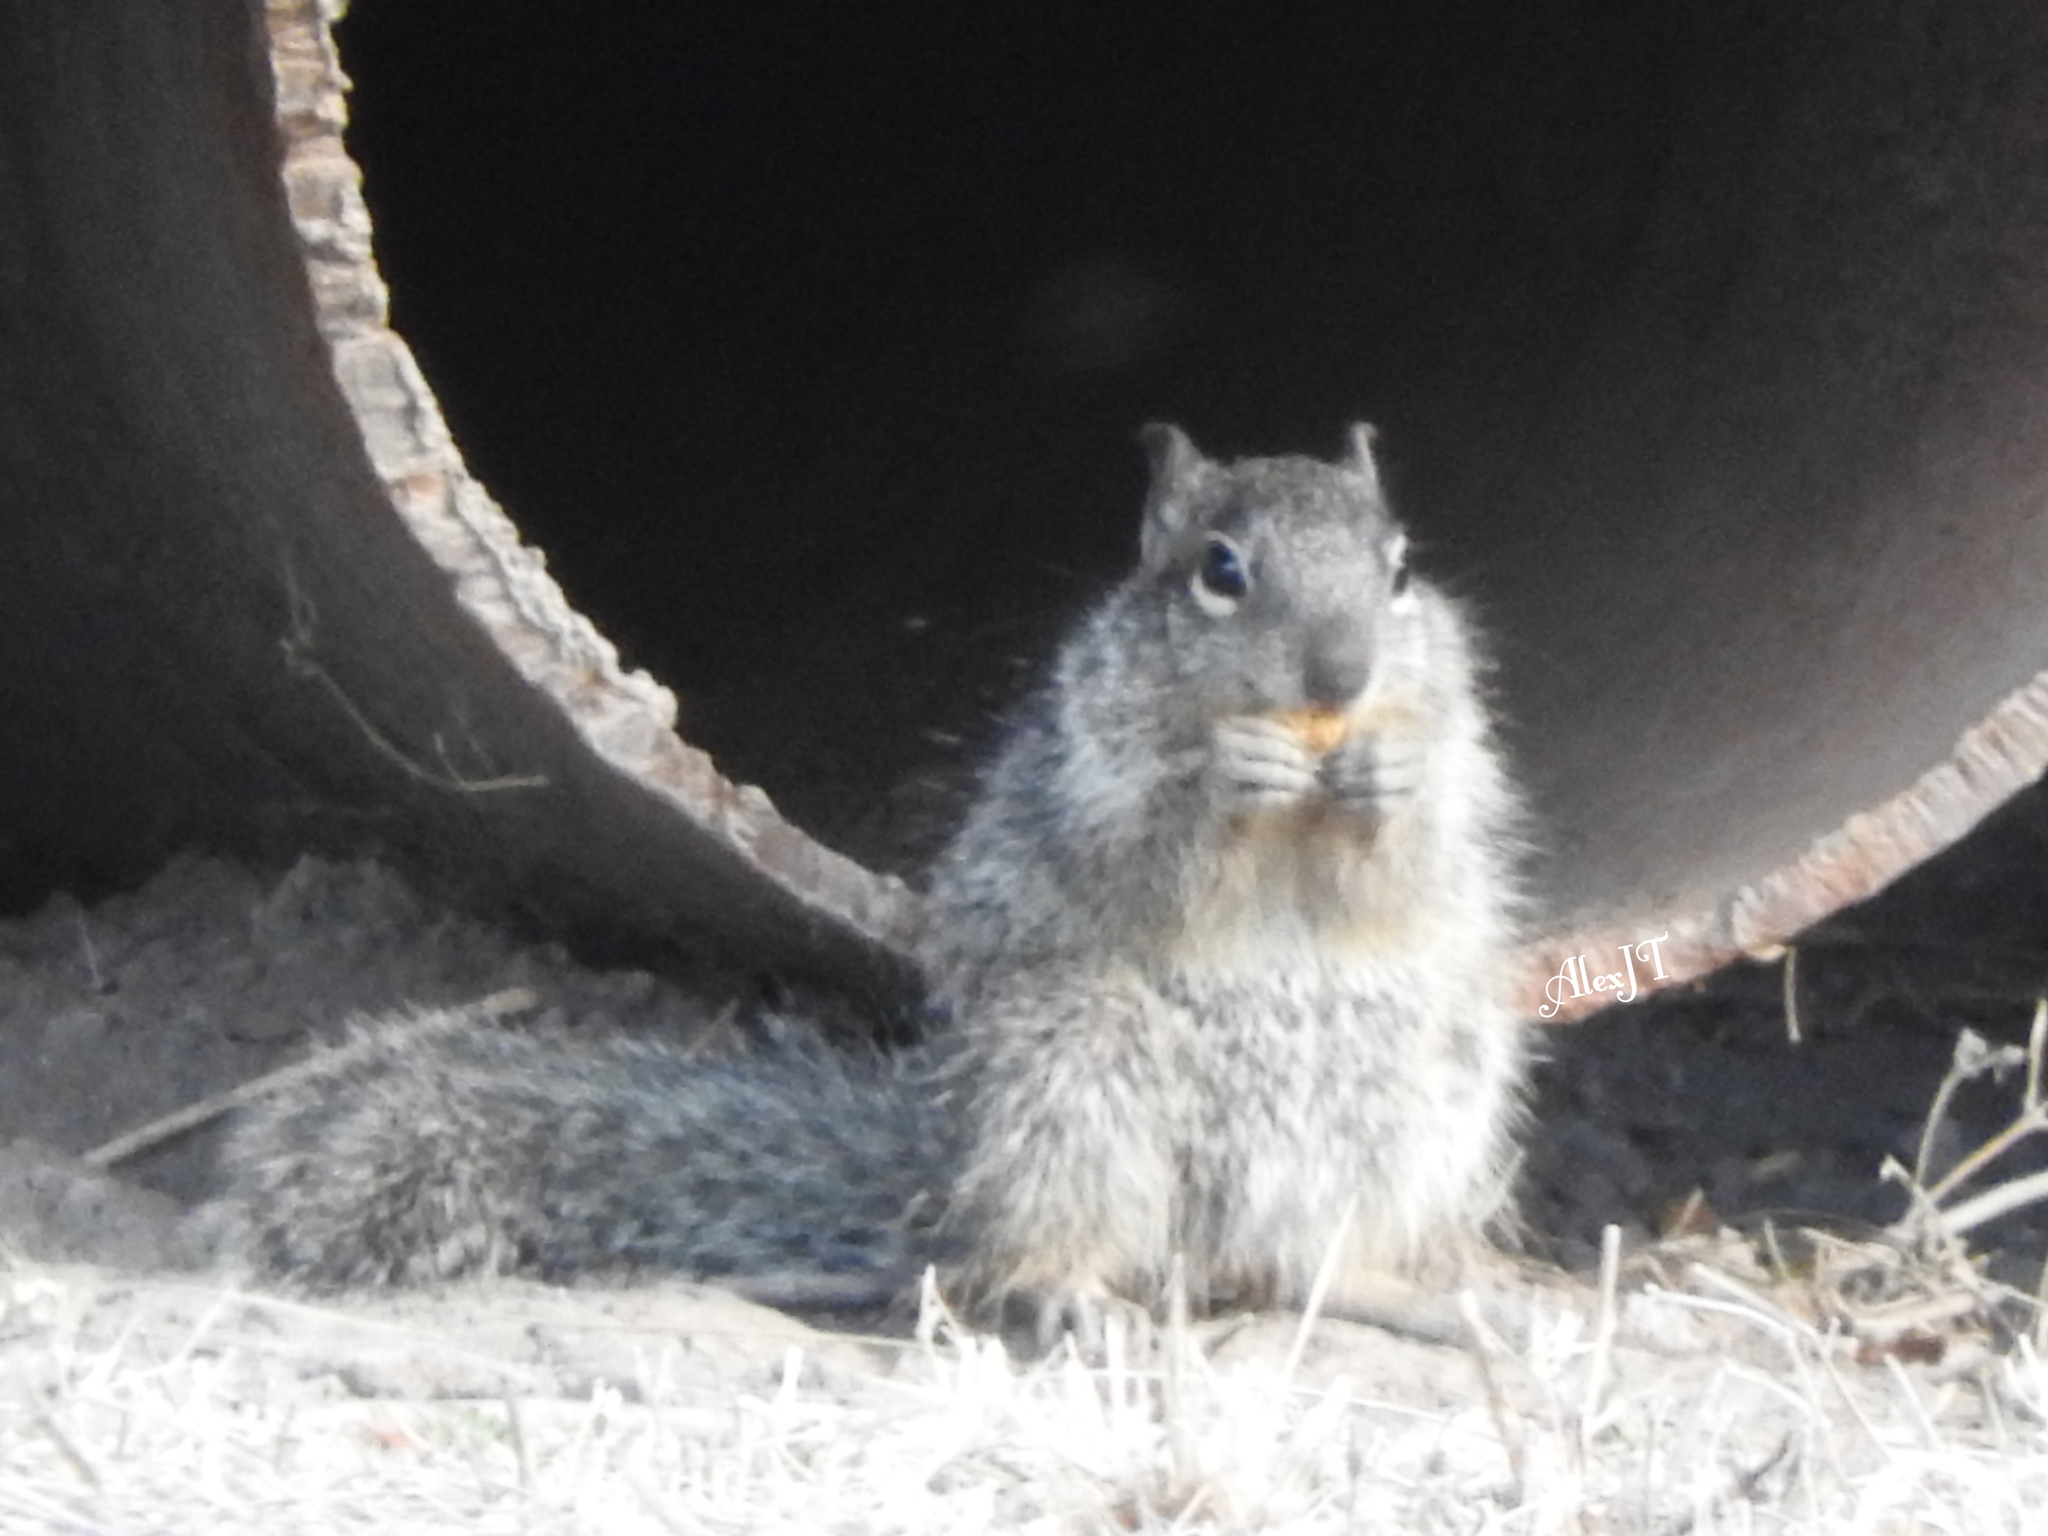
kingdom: Animalia
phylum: Chordata
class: Mammalia
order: Rodentia
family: Sciuridae
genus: Otospermophilus
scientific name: Otospermophilus variegatus
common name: Rock squirrel
